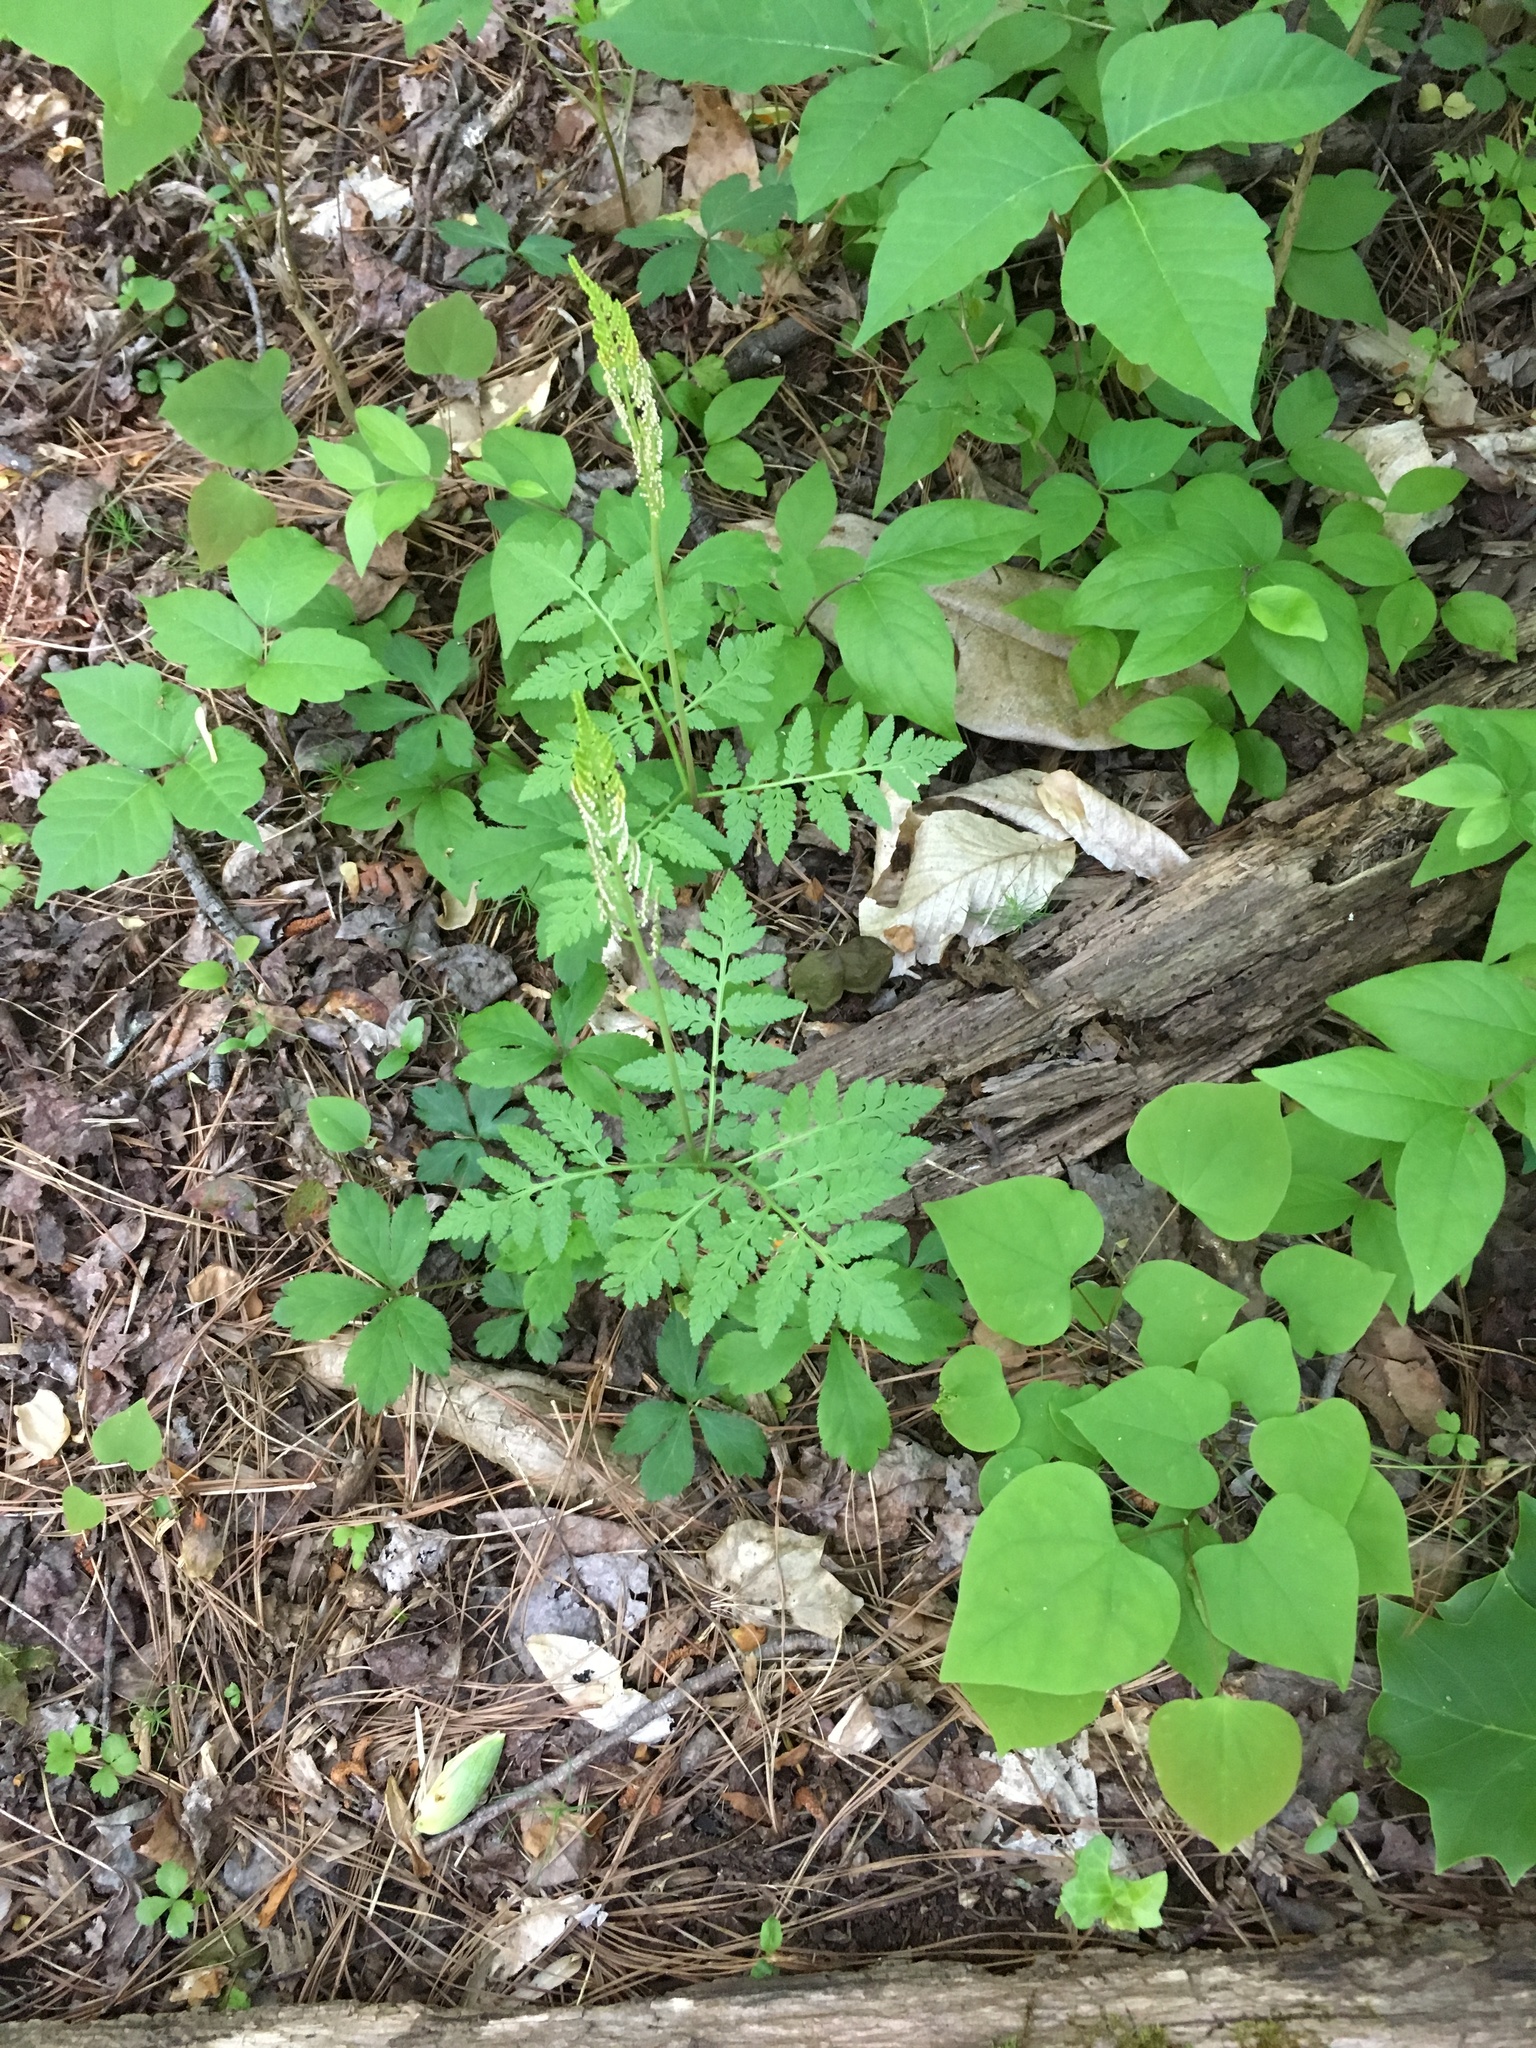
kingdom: Plantae
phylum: Tracheophyta
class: Polypodiopsida
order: Ophioglossales
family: Ophioglossaceae
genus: Botrypus
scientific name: Botrypus virginianus
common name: Common grapefern
